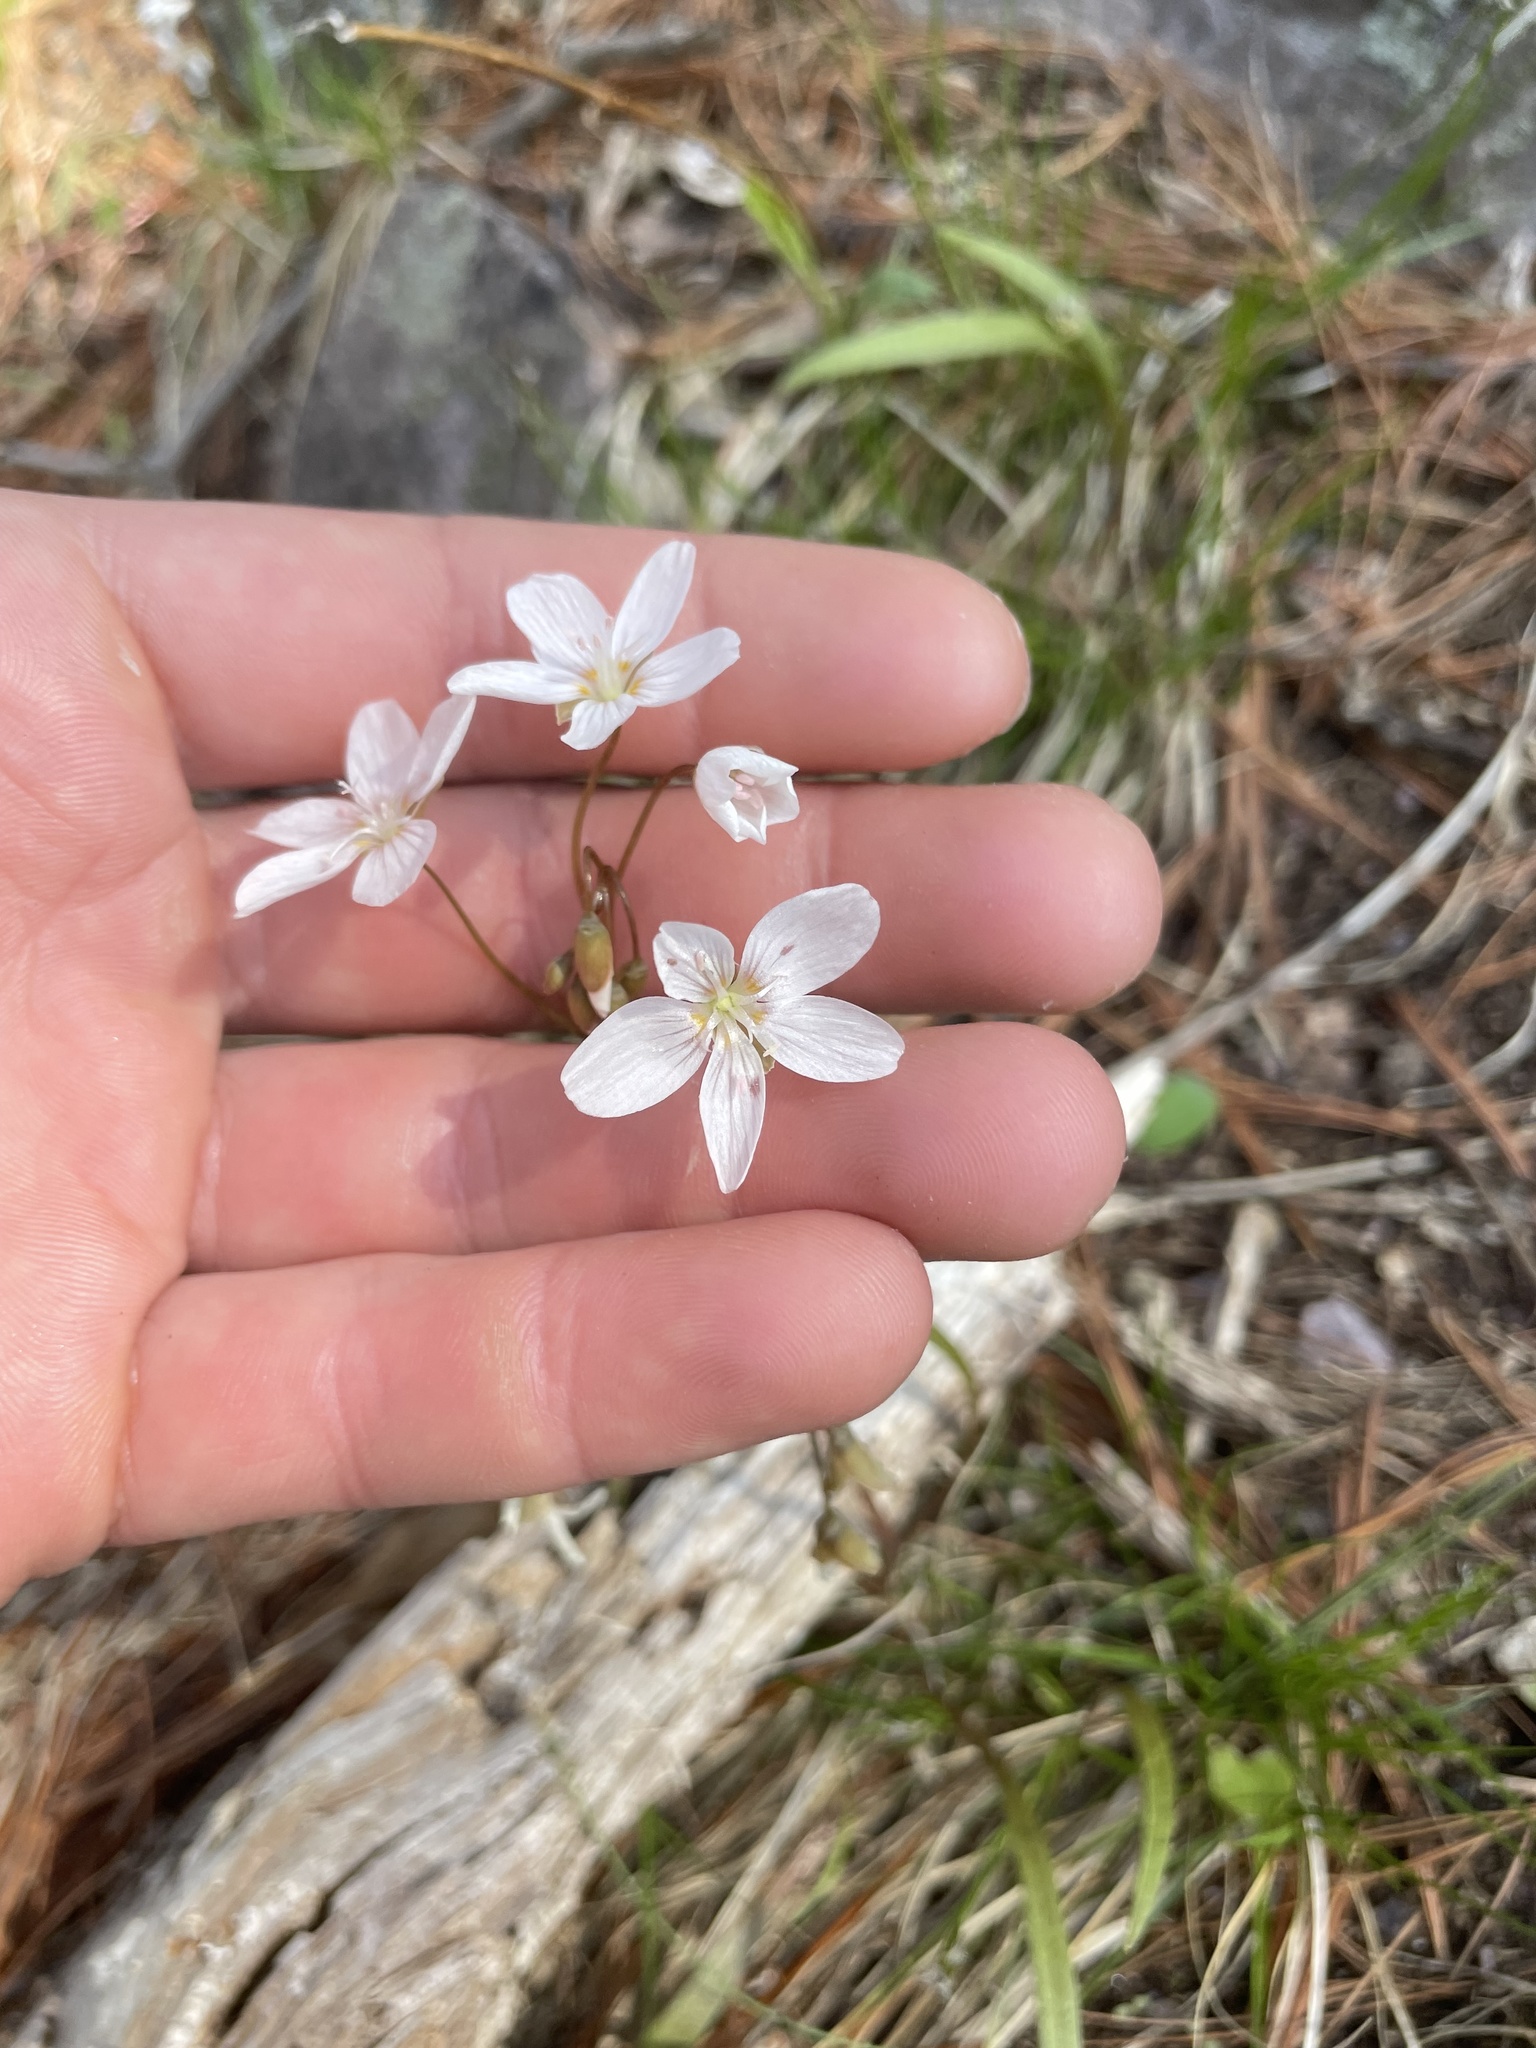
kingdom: Plantae
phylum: Tracheophyta
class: Magnoliopsida
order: Caryophyllales
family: Montiaceae
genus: Claytonia
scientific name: Claytonia virginica
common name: Virginia springbeauty
